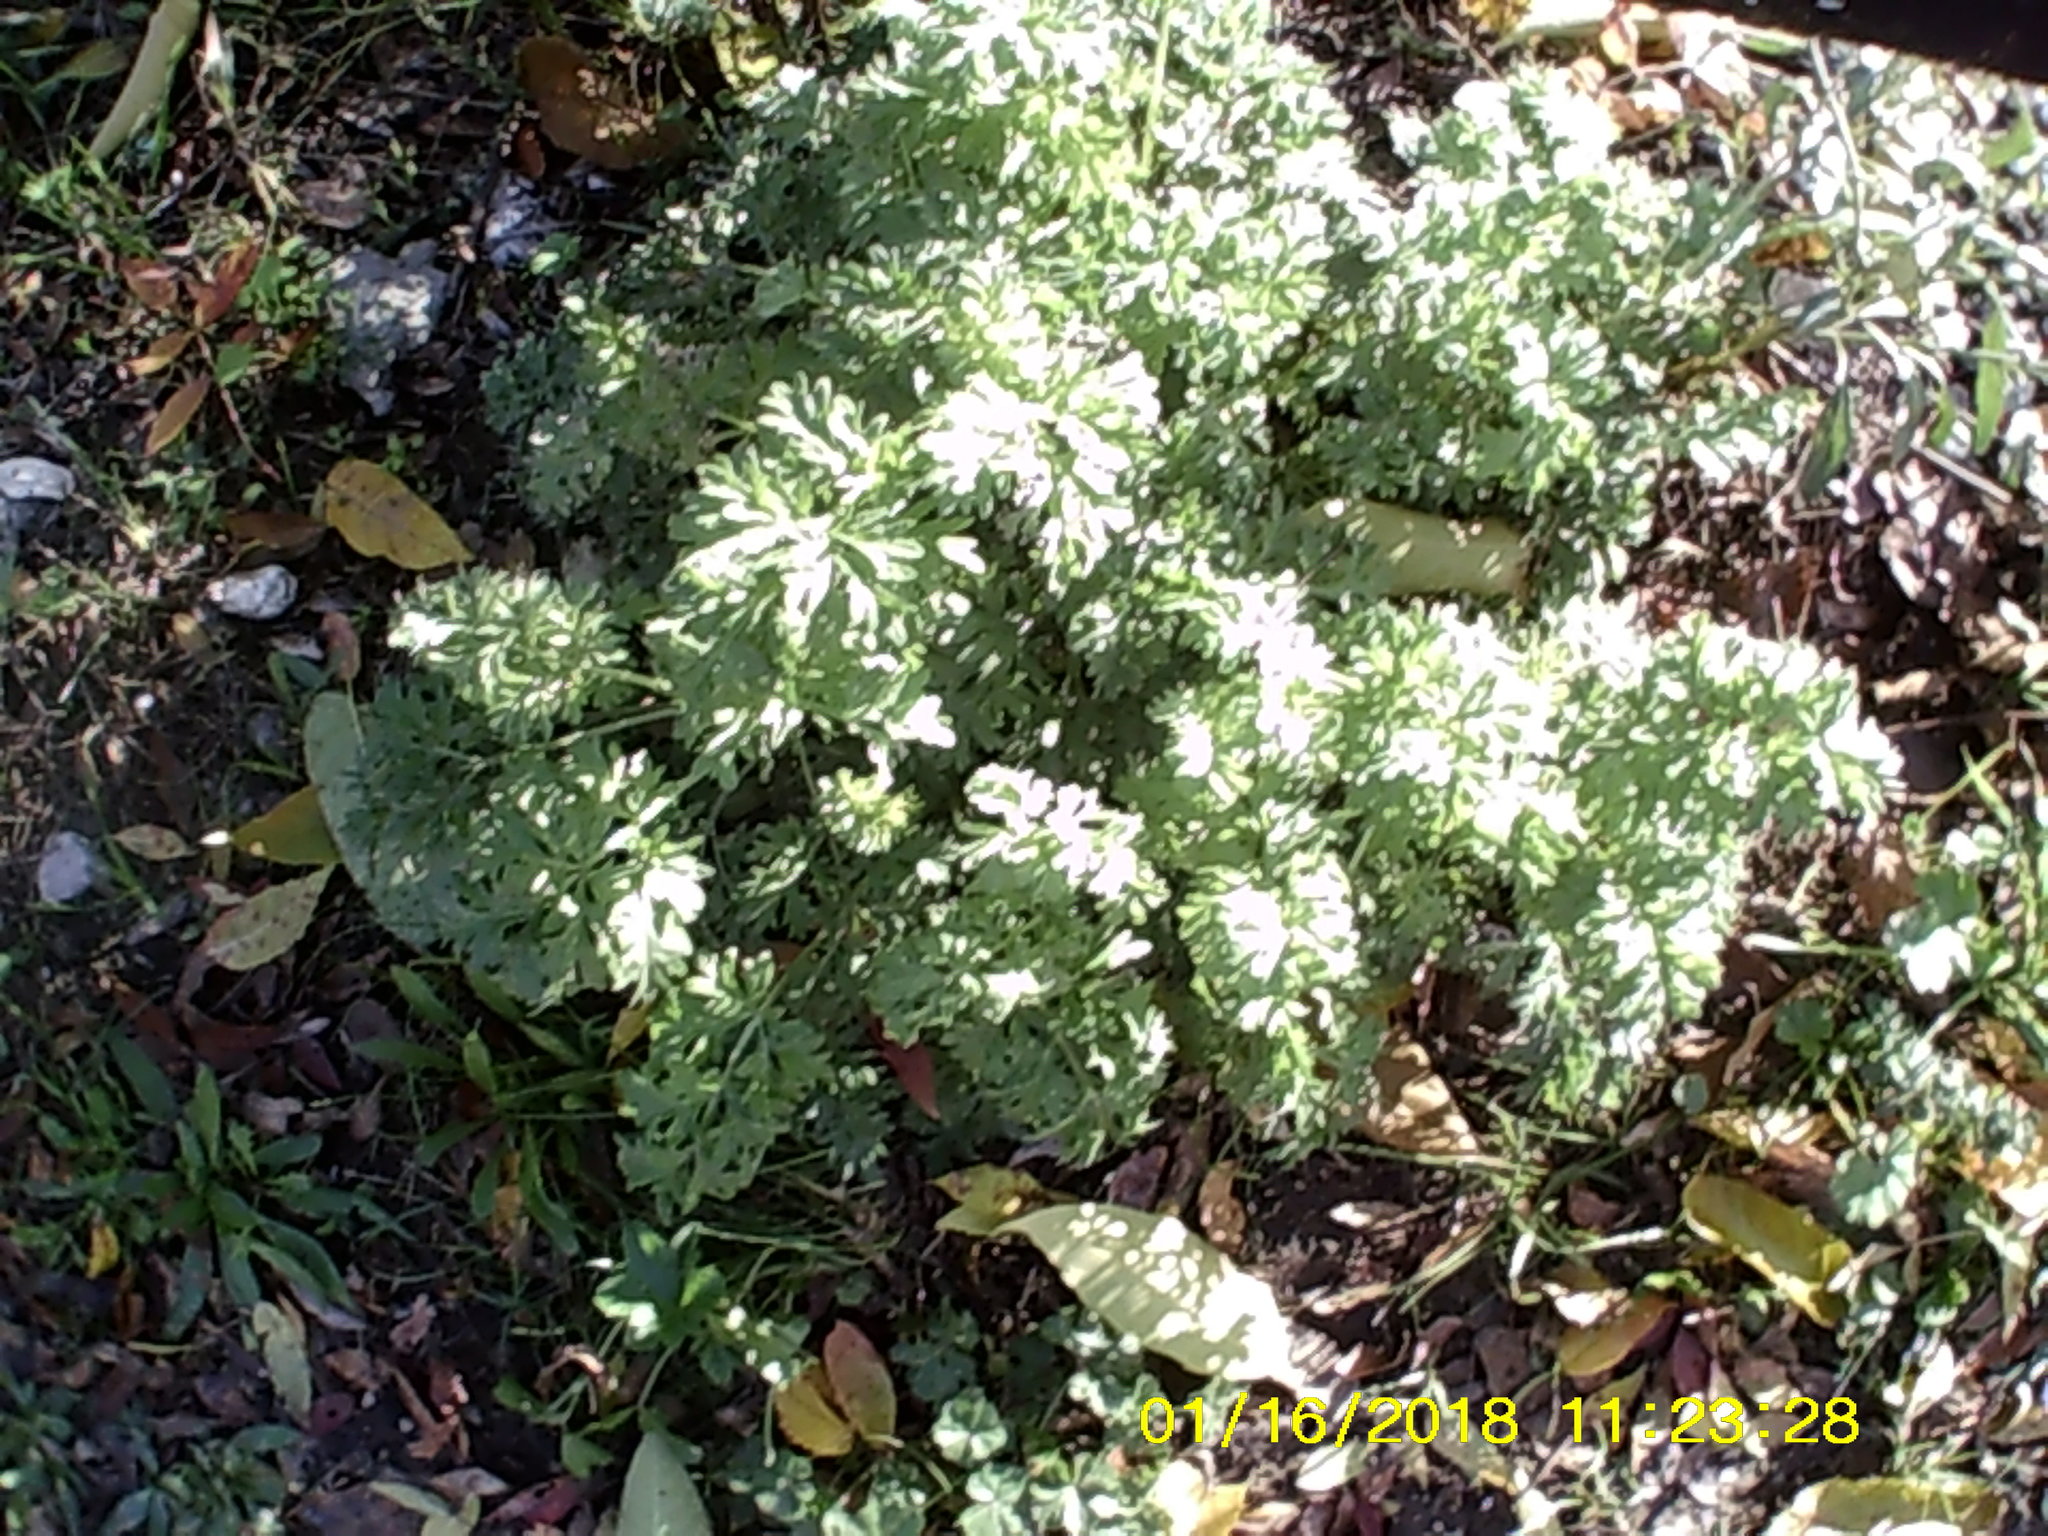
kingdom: Plantae
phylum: Tracheophyta
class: Magnoliopsida
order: Asterales
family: Asteraceae
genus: Artemisia
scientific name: Artemisia absinthium
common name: Wormwood
